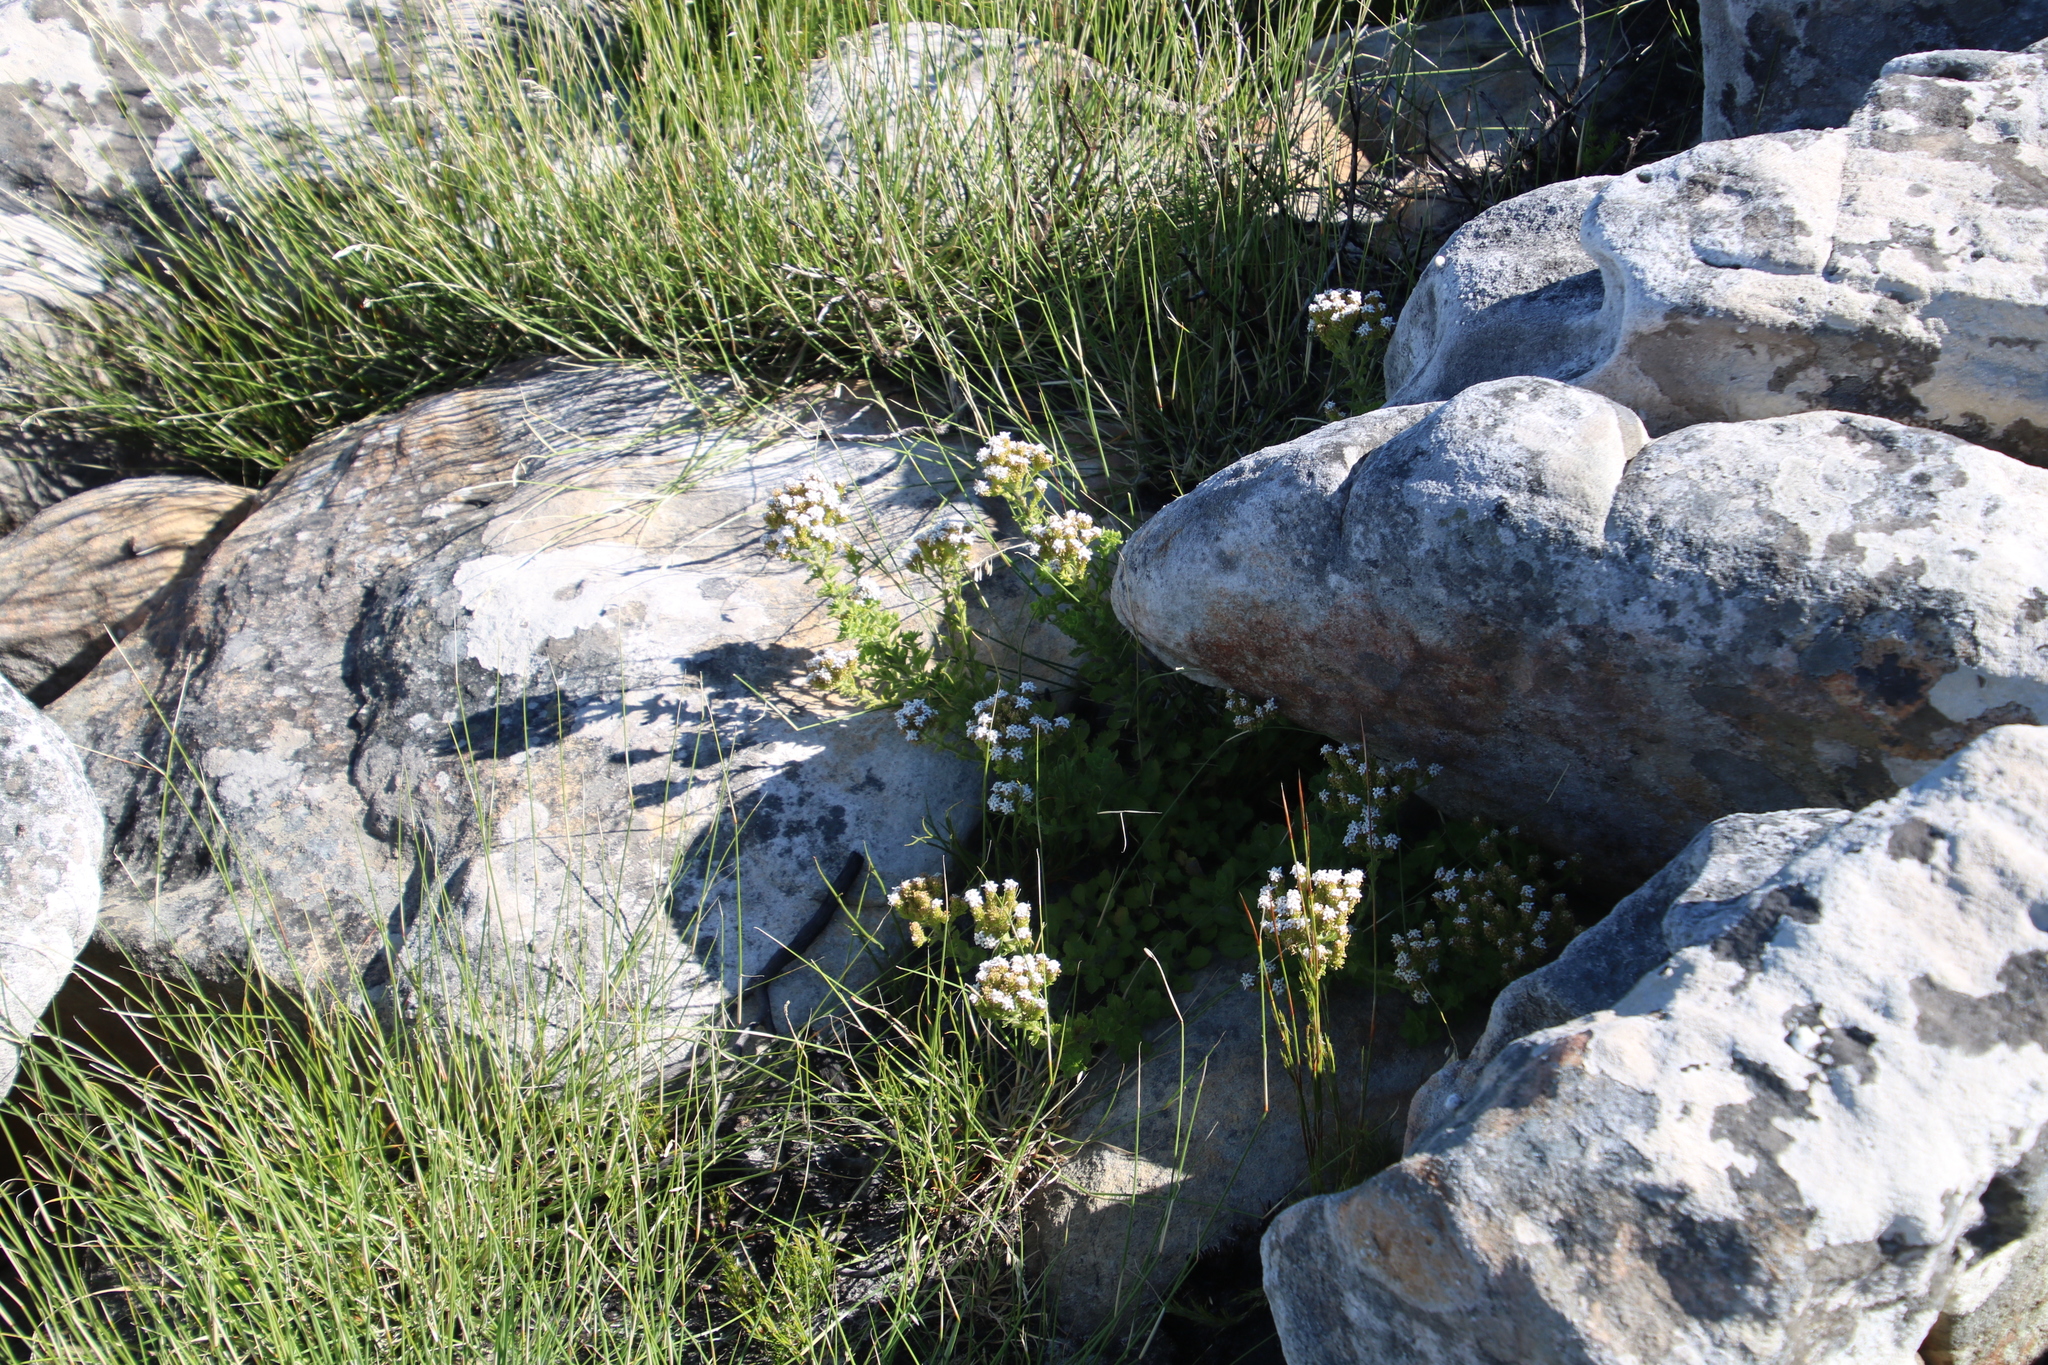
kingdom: Plantae
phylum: Tracheophyta
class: Magnoliopsida
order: Lamiales
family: Scrophulariaceae
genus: Pseudoselago
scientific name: Pseudoselago peninsulae
